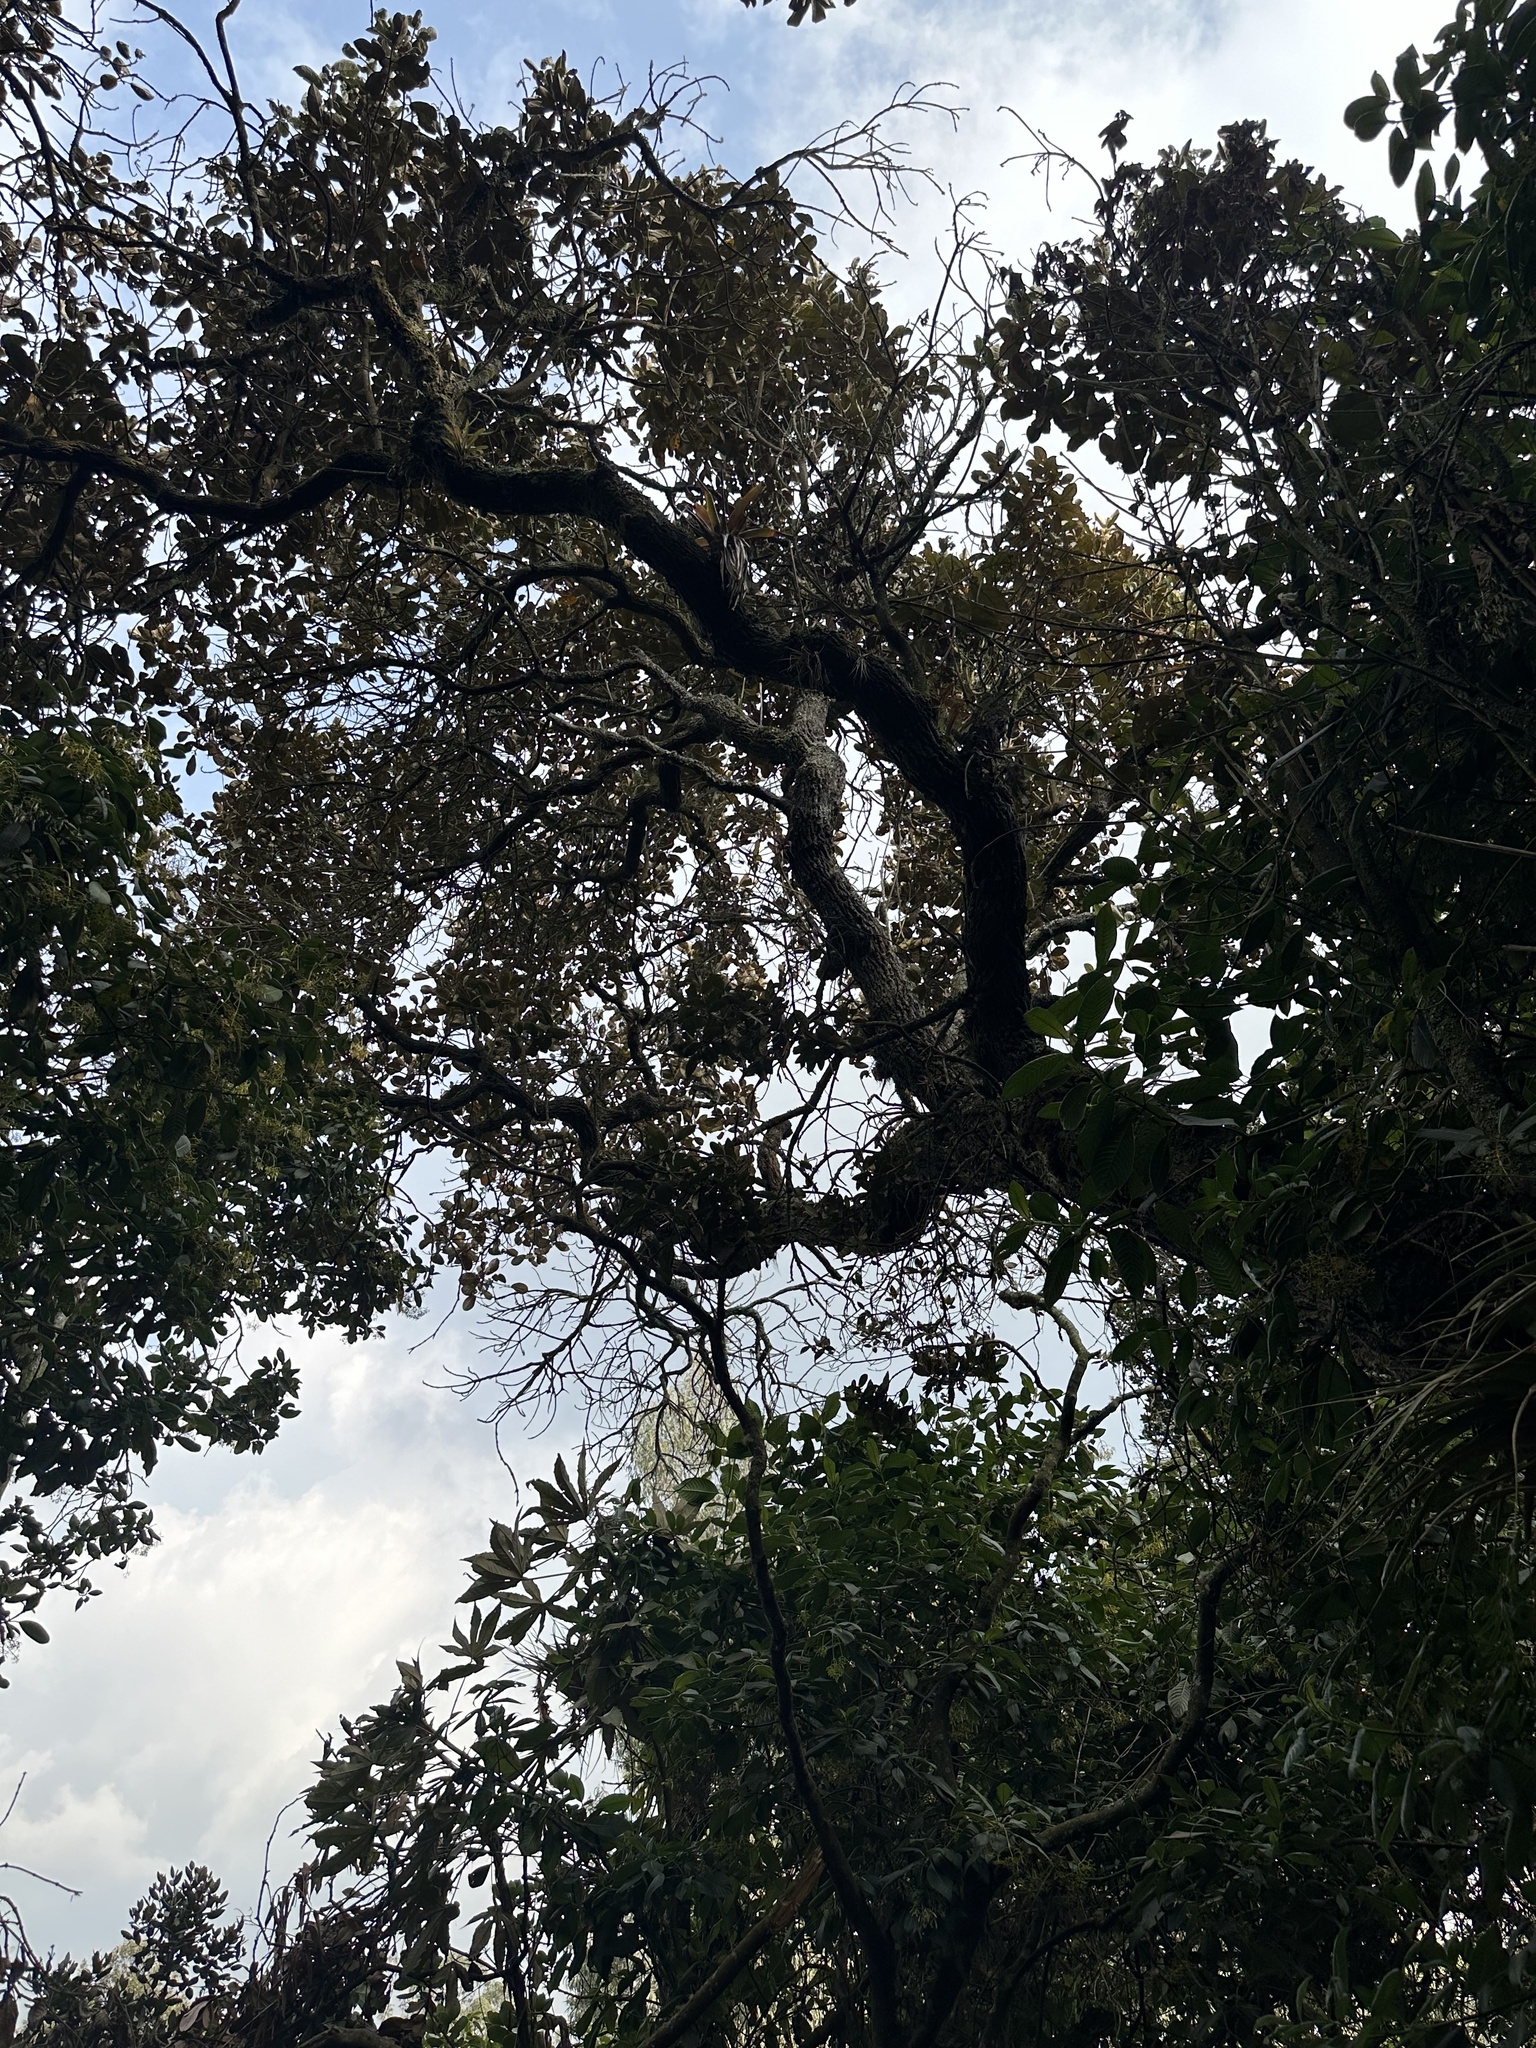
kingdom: Plantae
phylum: Tracheophyta
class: Magnoliopsida
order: Malpighiales
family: Phyllanthaceae
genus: Hieronyma
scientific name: Hieronyma rufa
